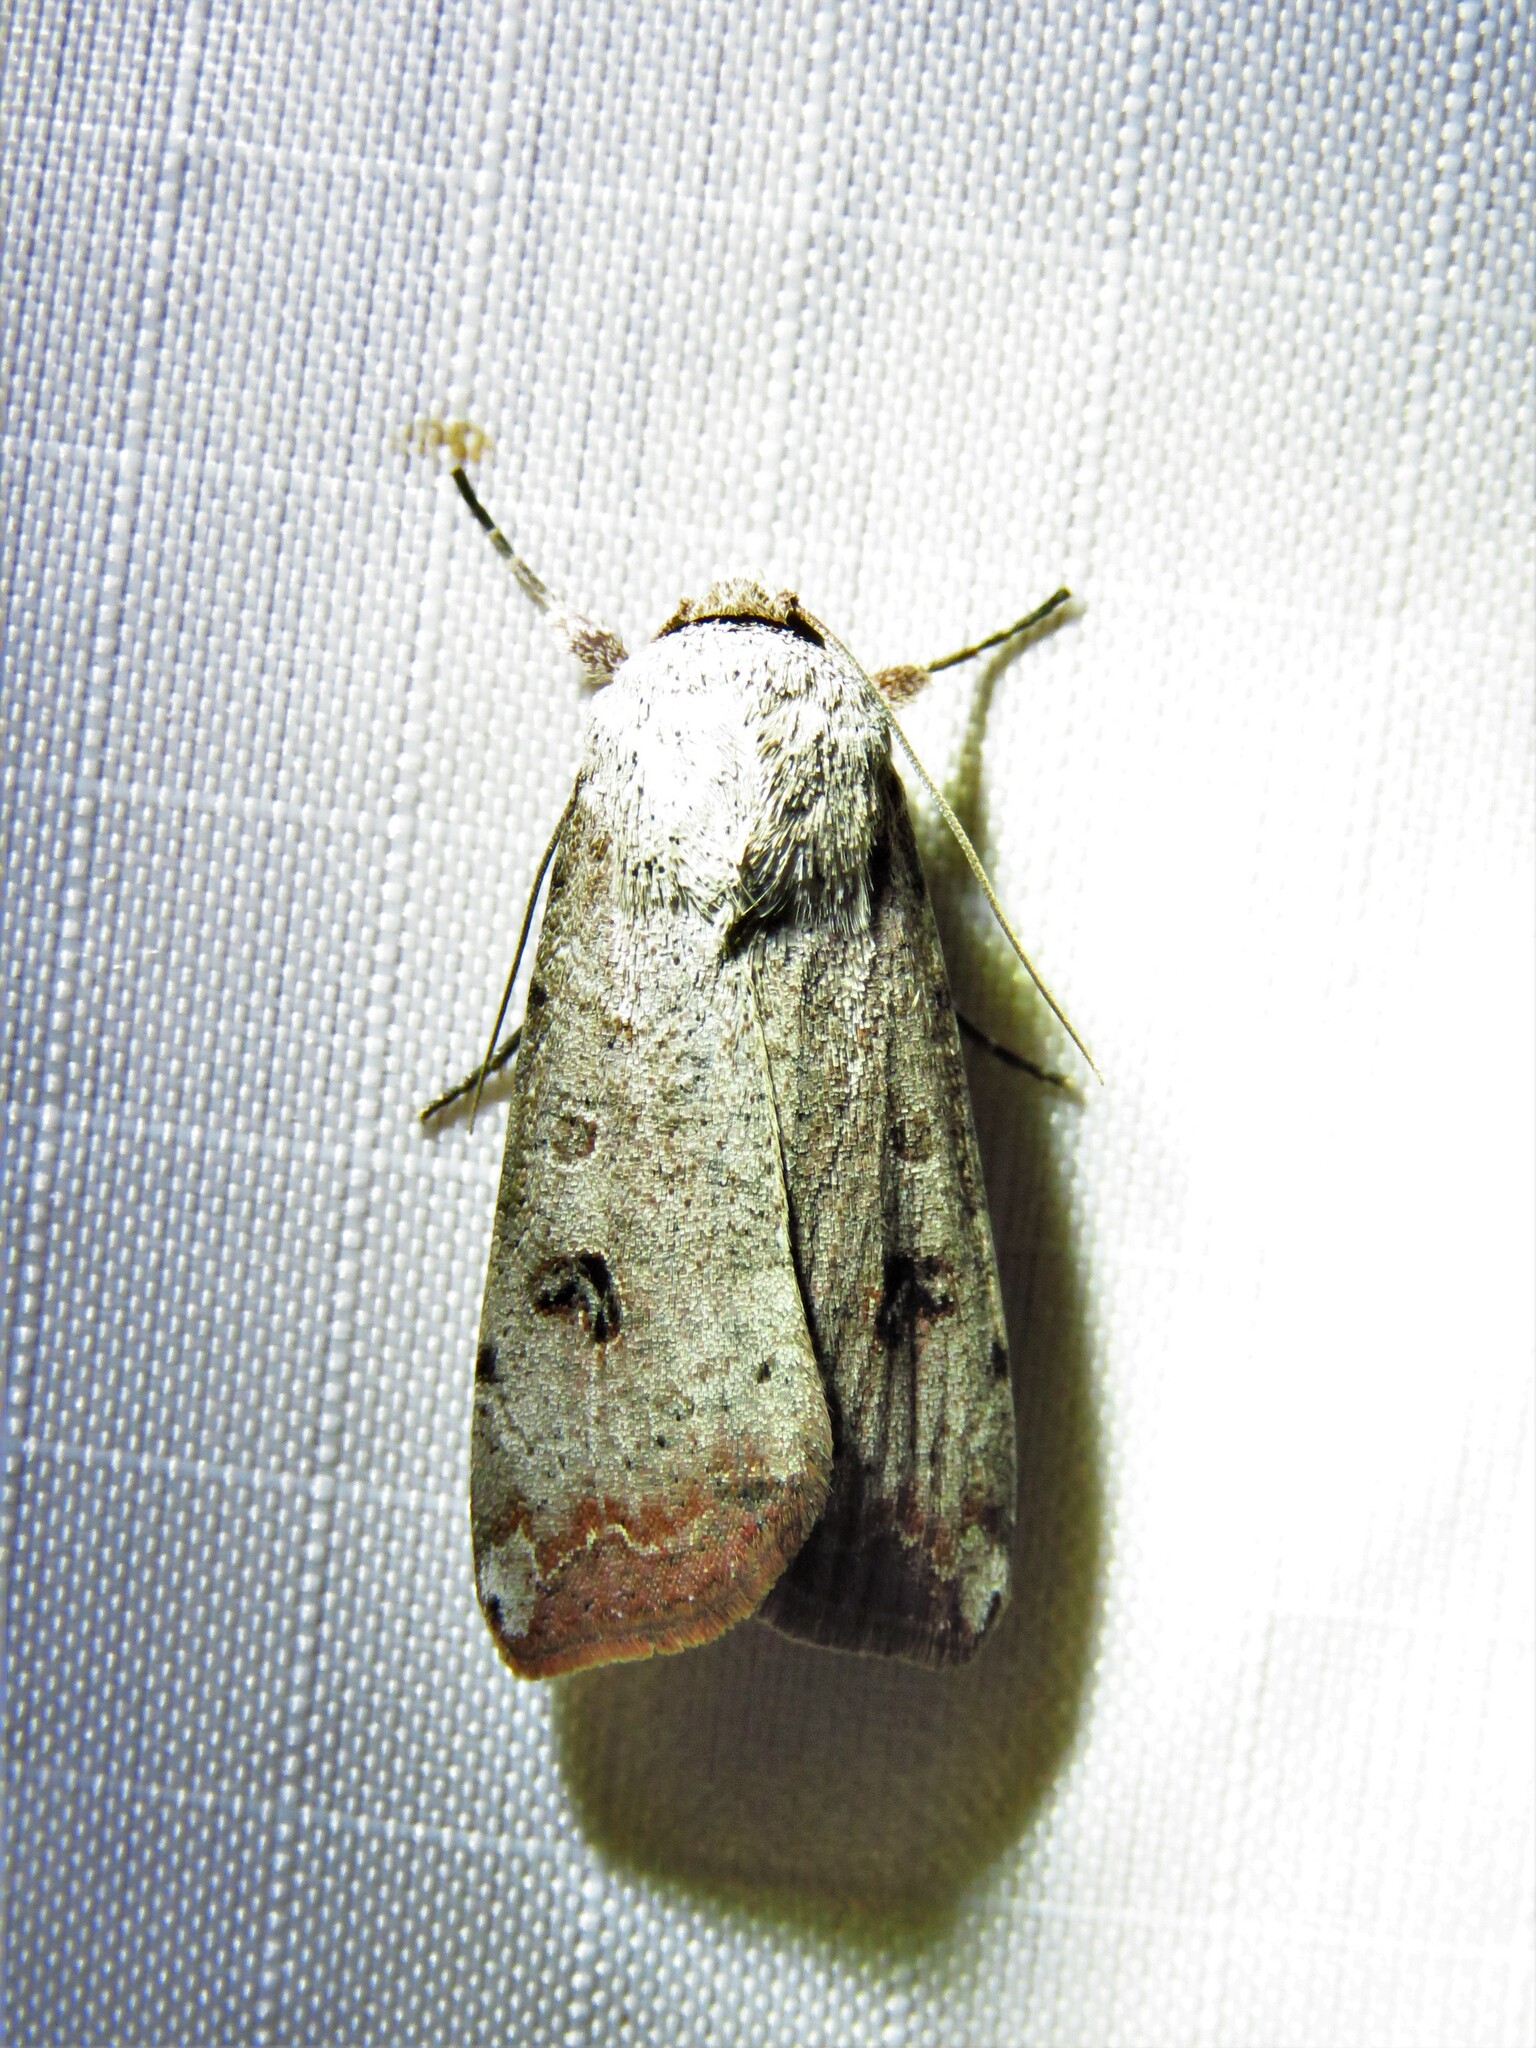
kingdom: Animalia
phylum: Arthropoda
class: Insecta
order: Lepidoptera
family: Noctuidae
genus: Anicla
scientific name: Anicla infecta
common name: Green cutworm
